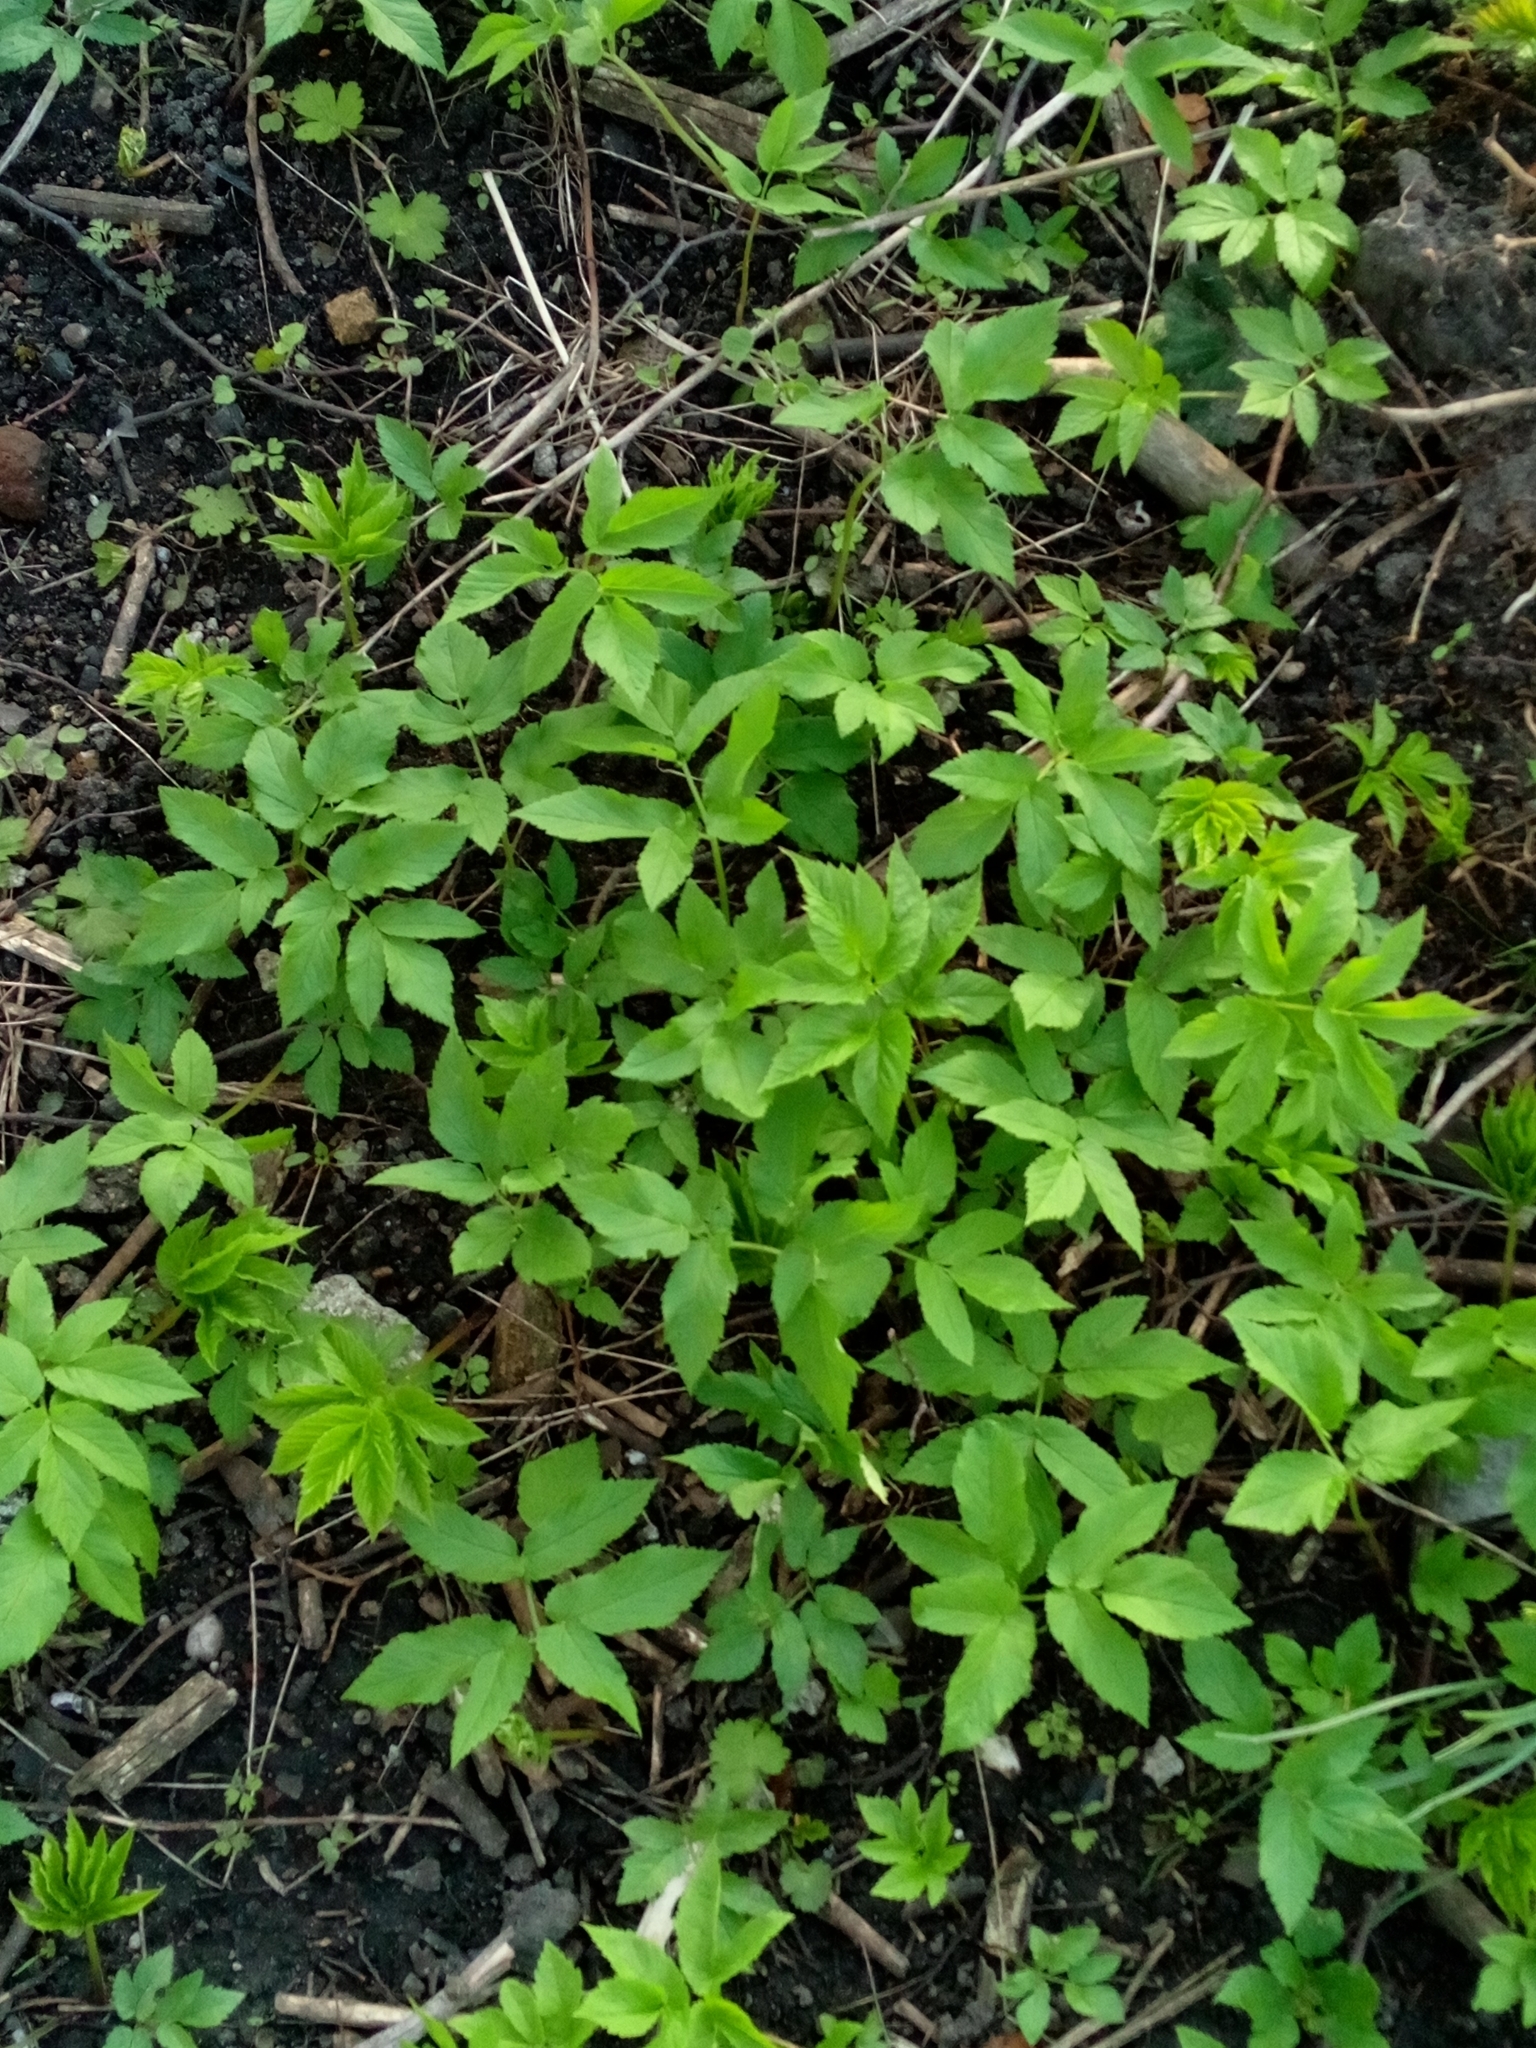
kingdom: Plantae
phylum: Tracheophyta
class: Magnoliopsida
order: Apiales
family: Apiaceae
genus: Aegopodium
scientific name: Aegopodium podagraria
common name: Ground-elder
